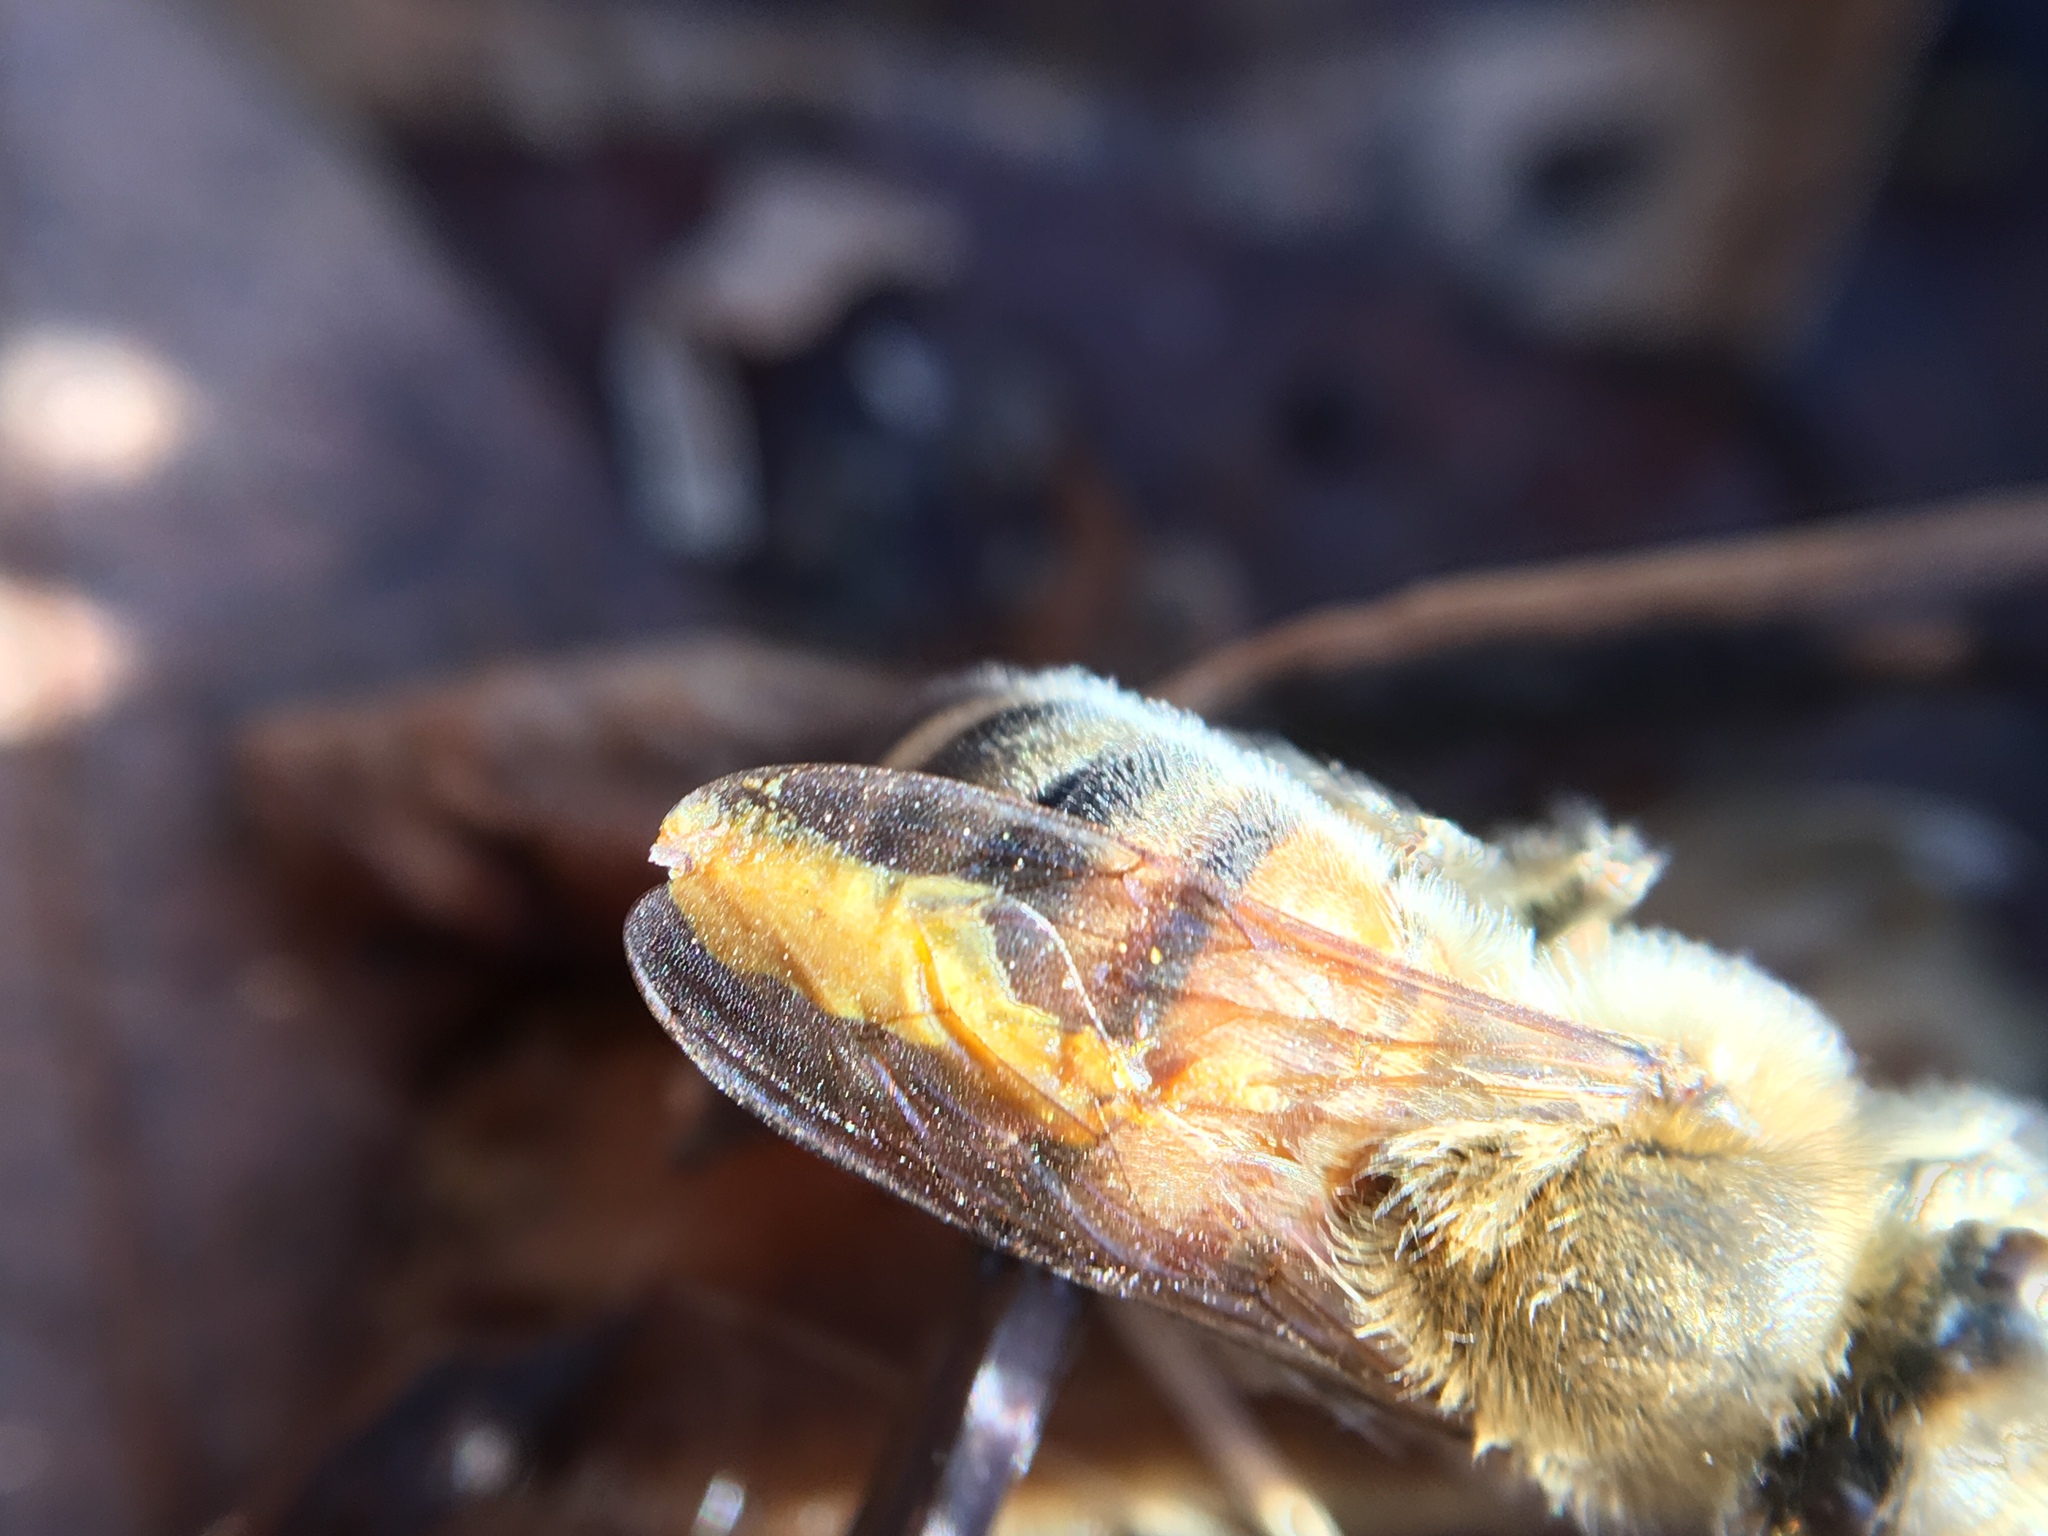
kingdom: Animalia
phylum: Arthropoda
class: Insecta
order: Hymenoptera
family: Apidae
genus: Apis
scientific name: Apis mellifera
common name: Honey bee
